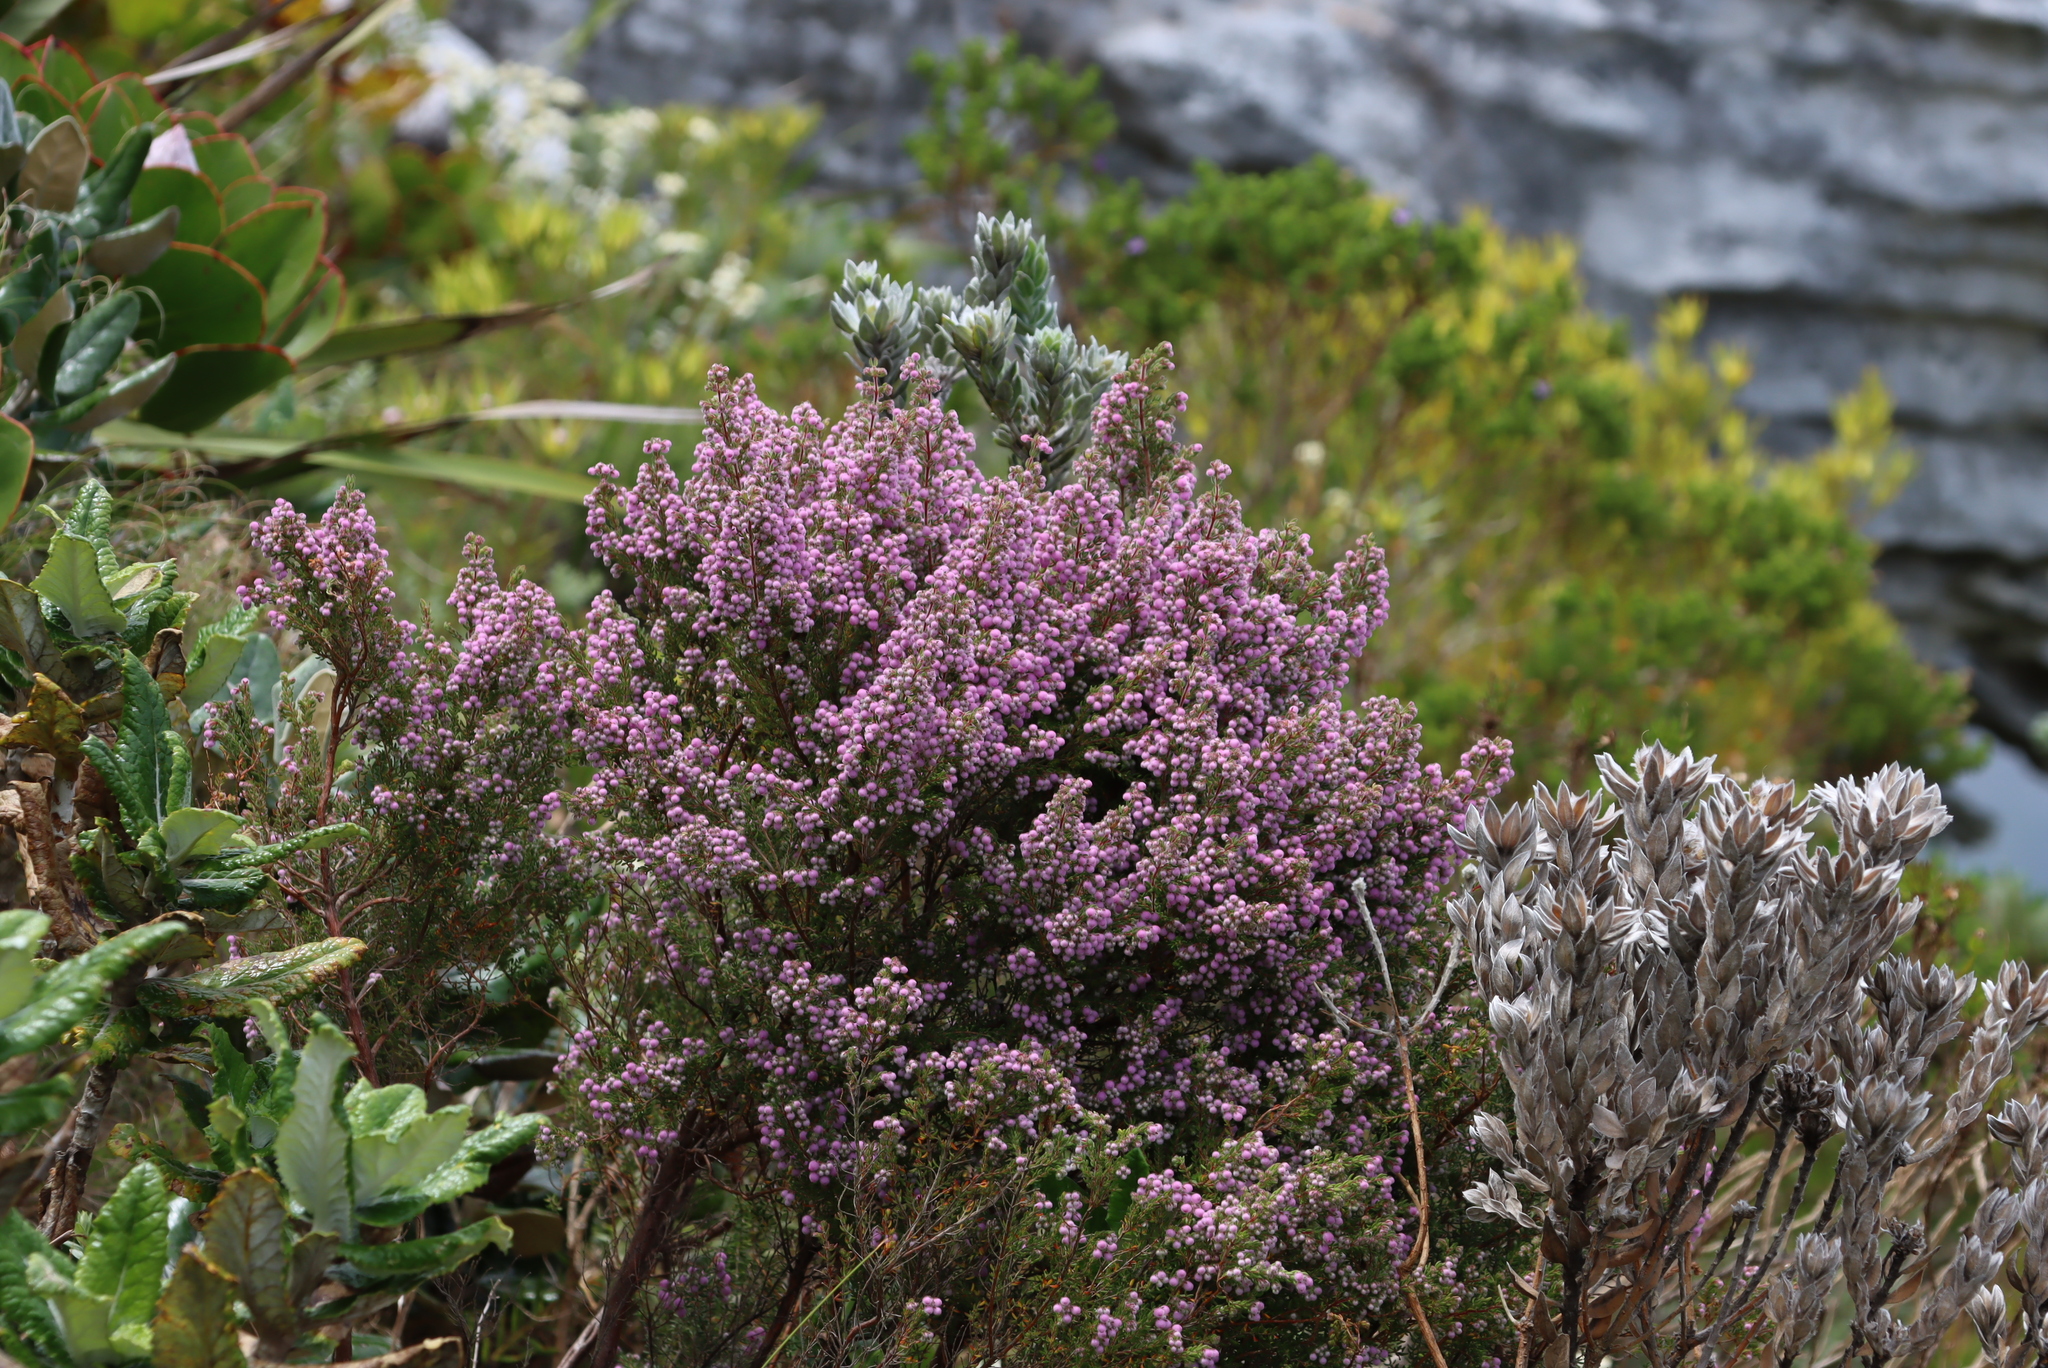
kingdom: Plantae
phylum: Tracheophyta
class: Magnoliopsida
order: Ericales
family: Ericaceae
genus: Erica
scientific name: Erica hirtiflora
